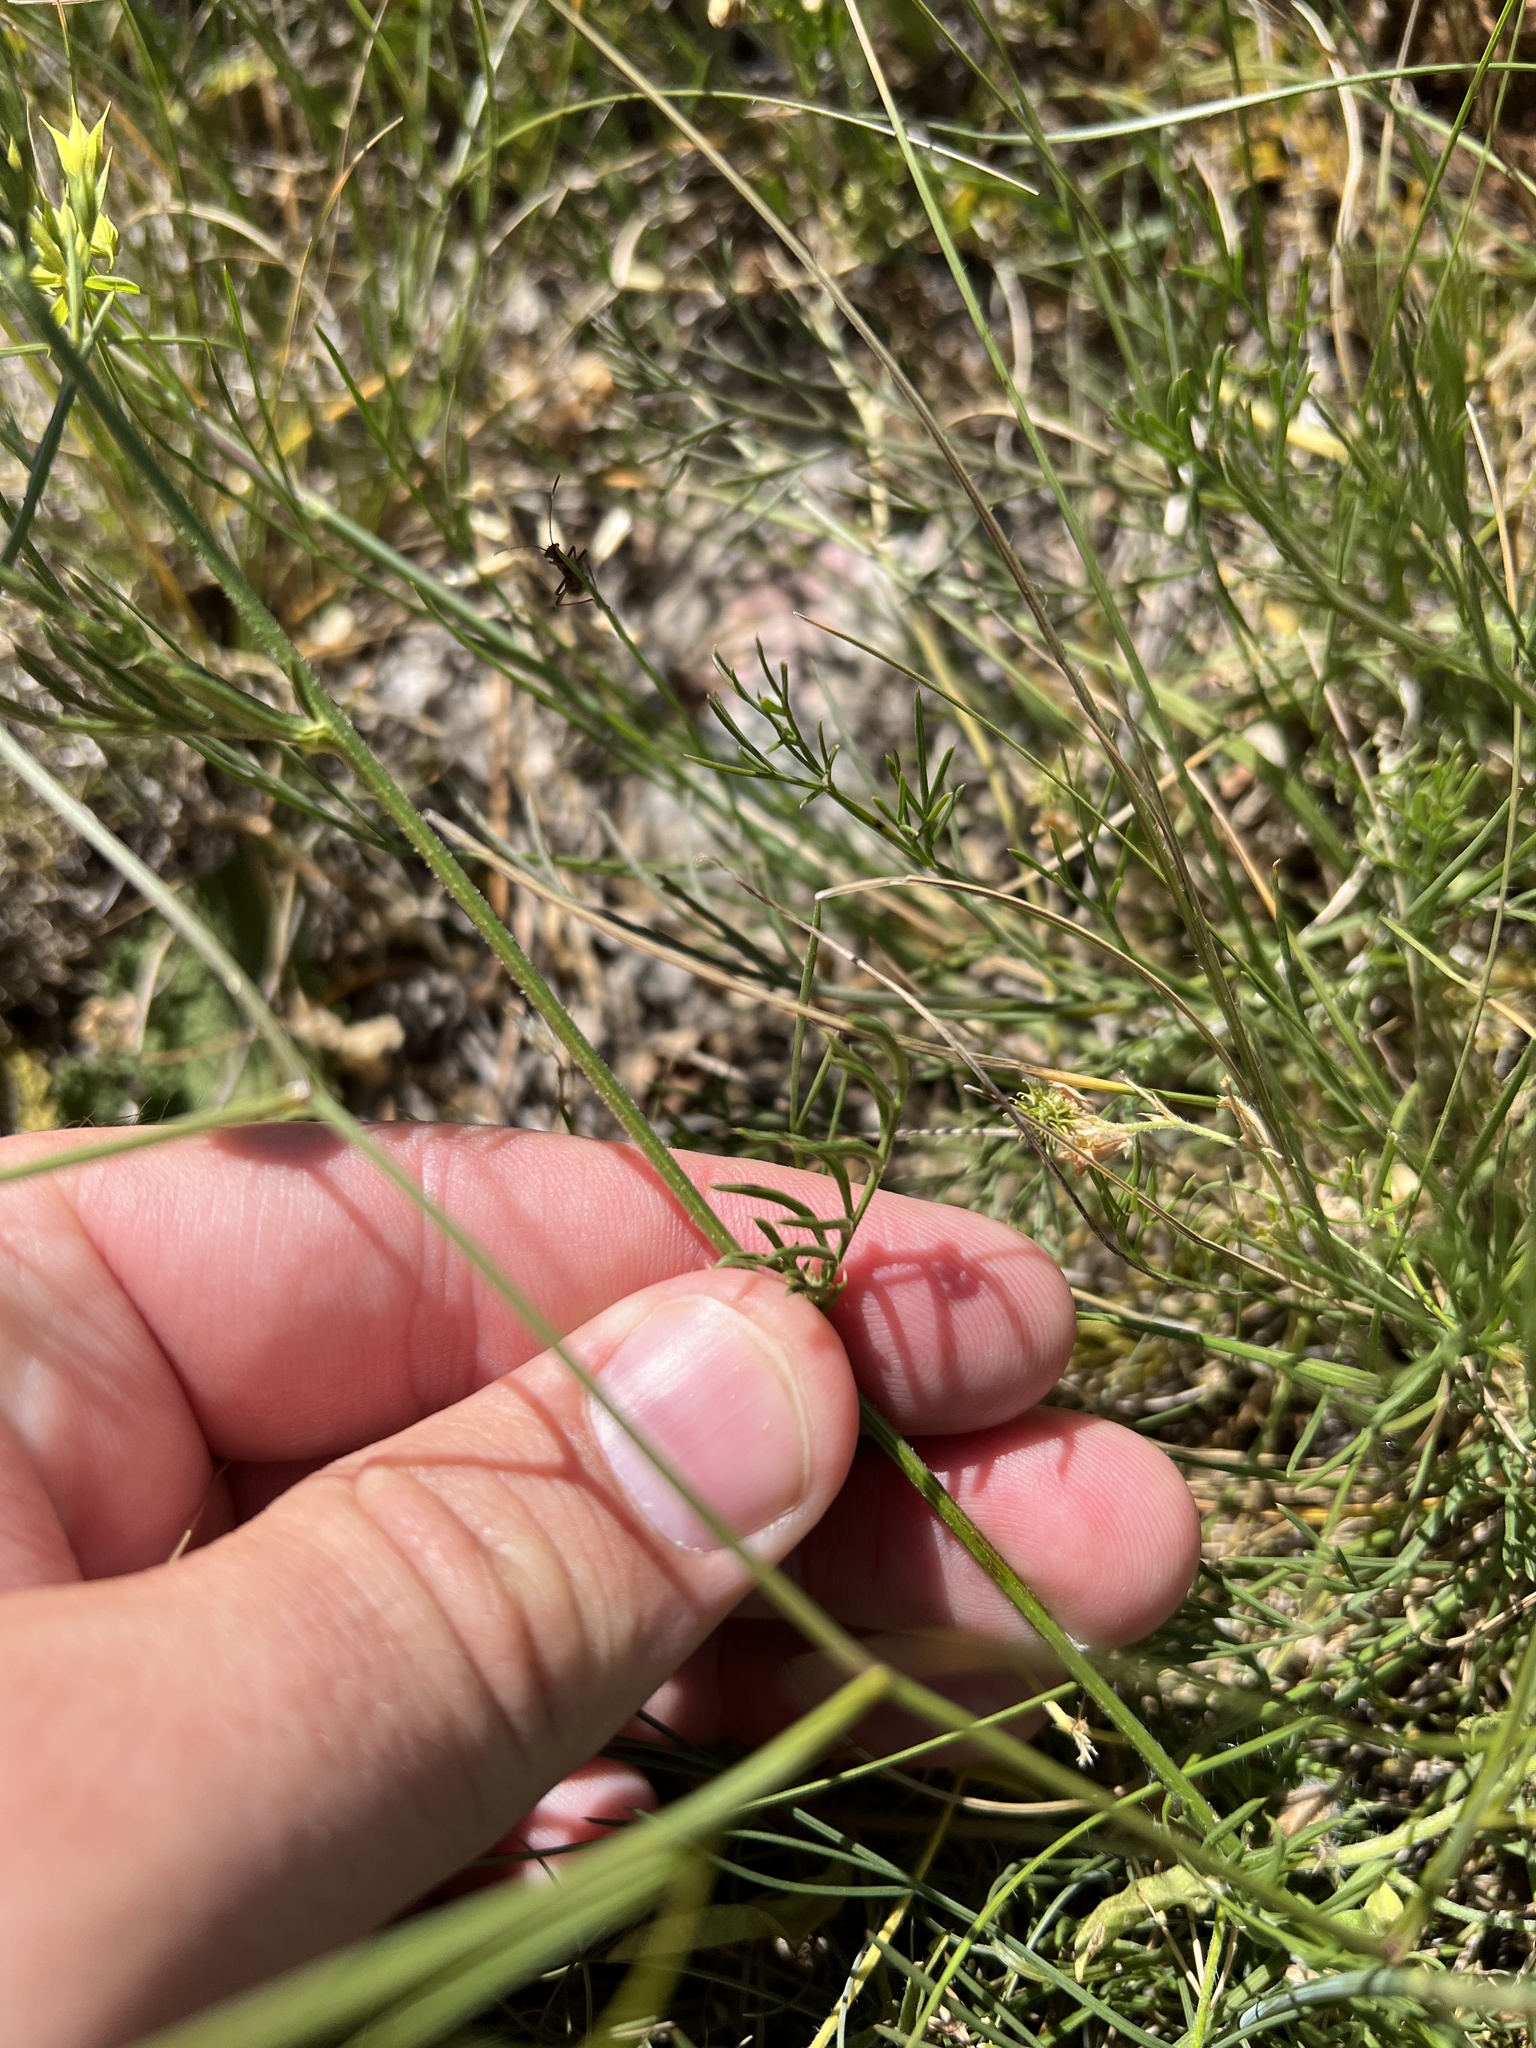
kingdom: Plantae
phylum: Tracheophyta
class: Magnoliopsida
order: Asterales
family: Asteraceae
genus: Centaurea
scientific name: Centaurea solstitialis
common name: Yellow star-thistle
